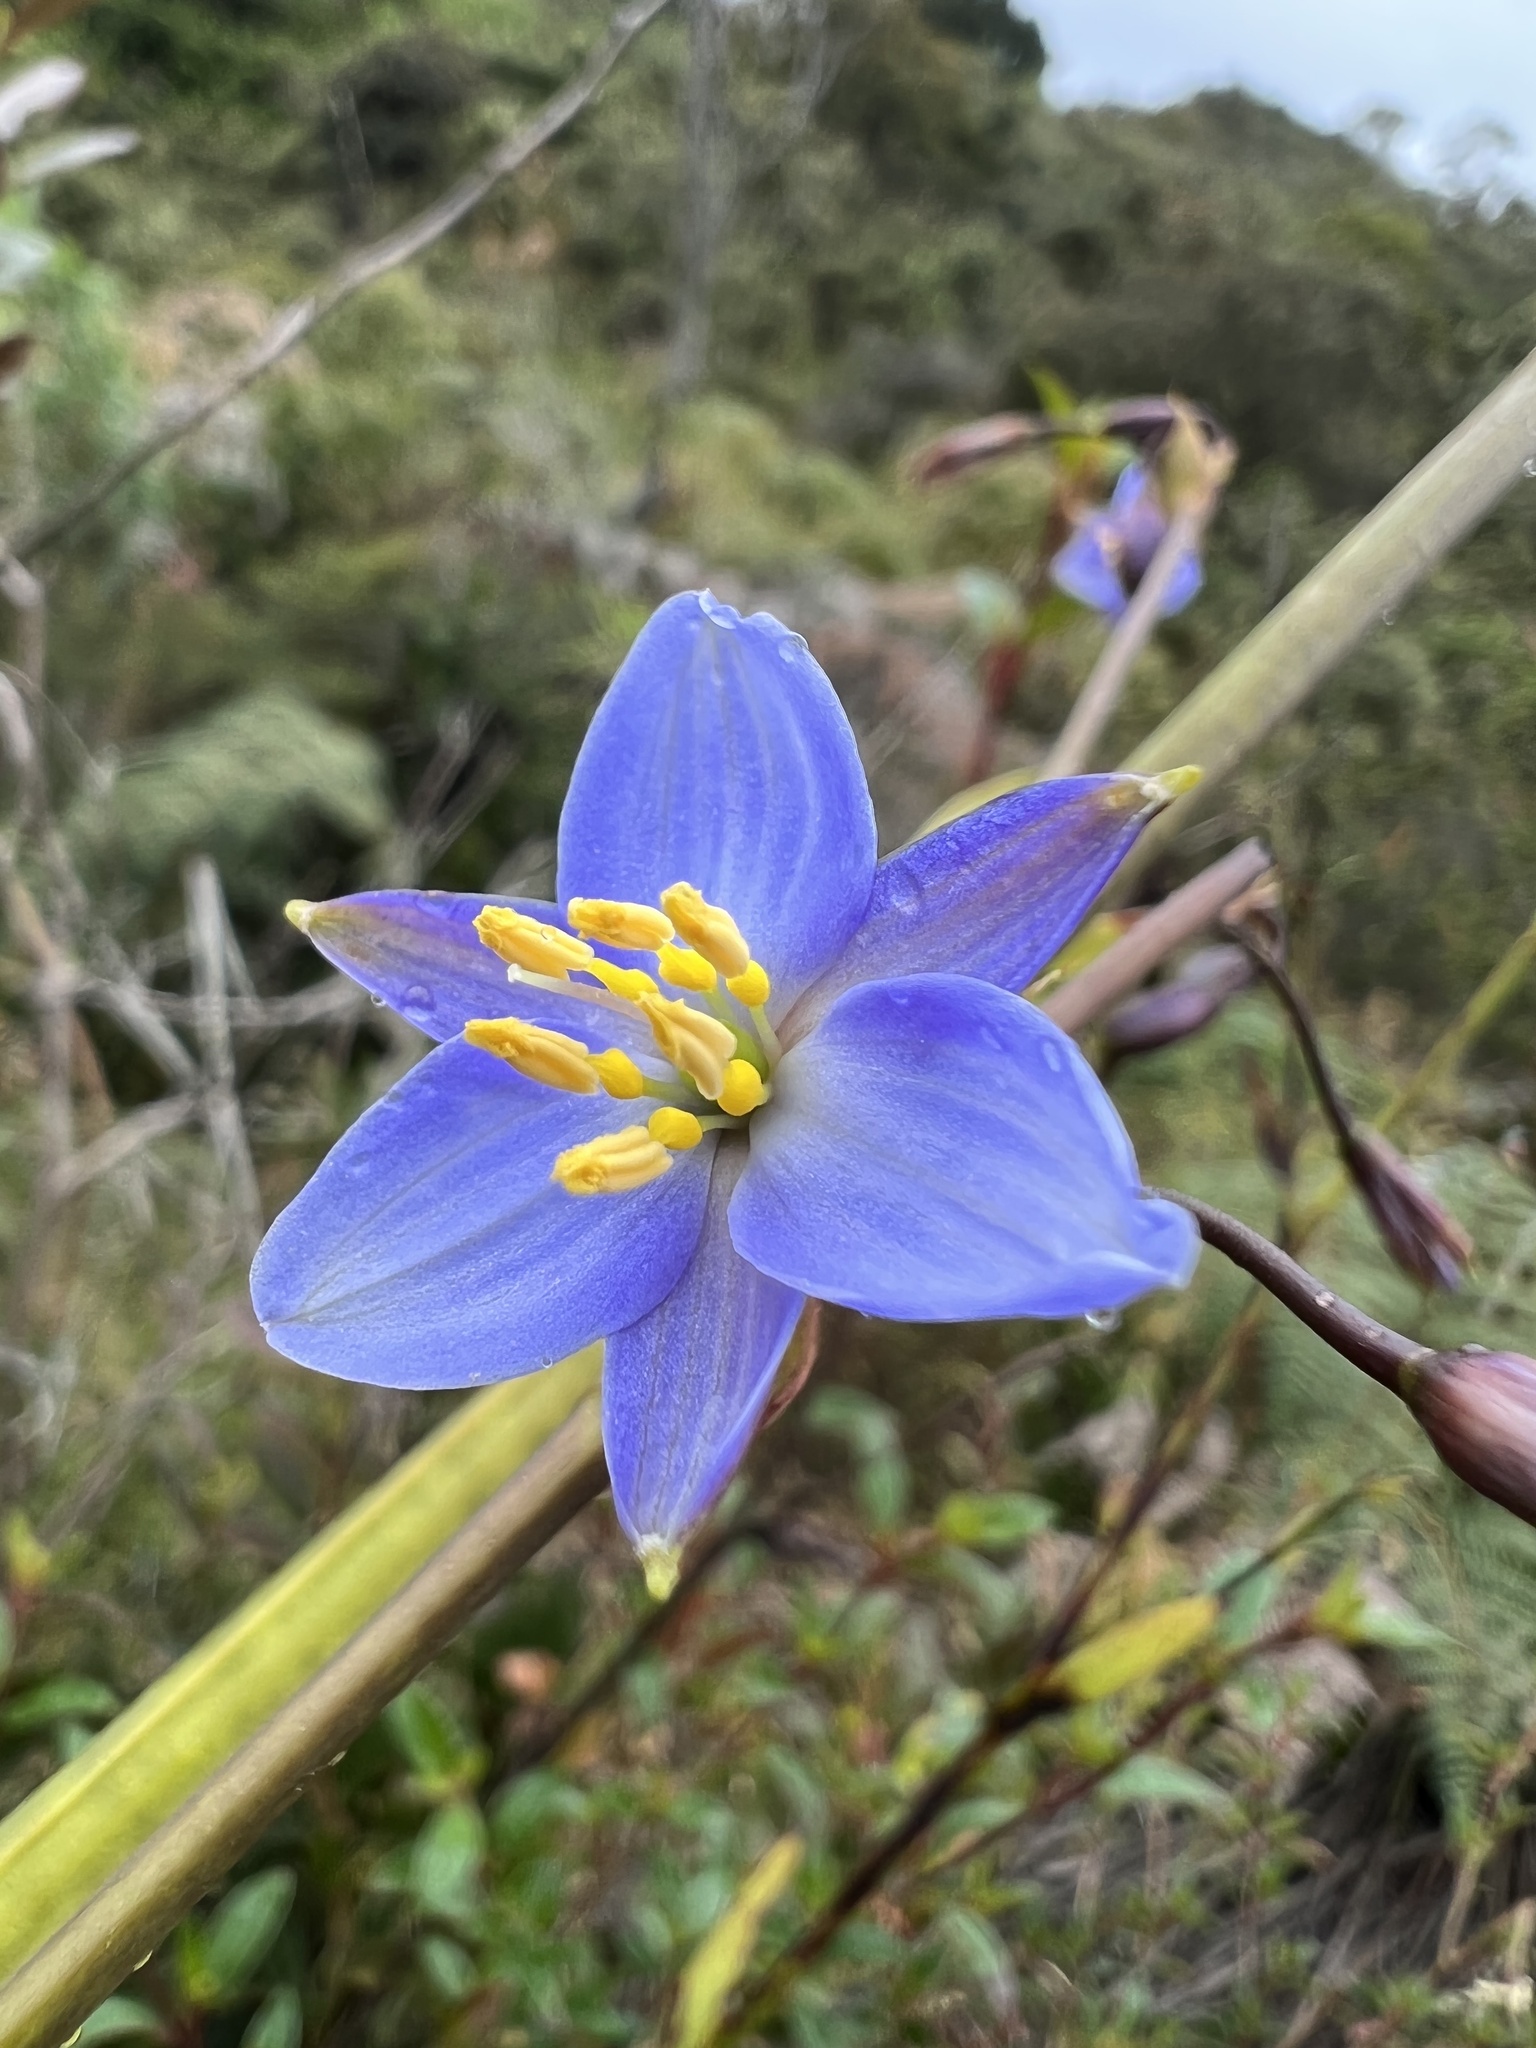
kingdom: Plantae
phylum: Tracheophyta
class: Liliopsida
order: Asparagales
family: Asphodelaceae
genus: Excremis
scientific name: Excremis coarctata
